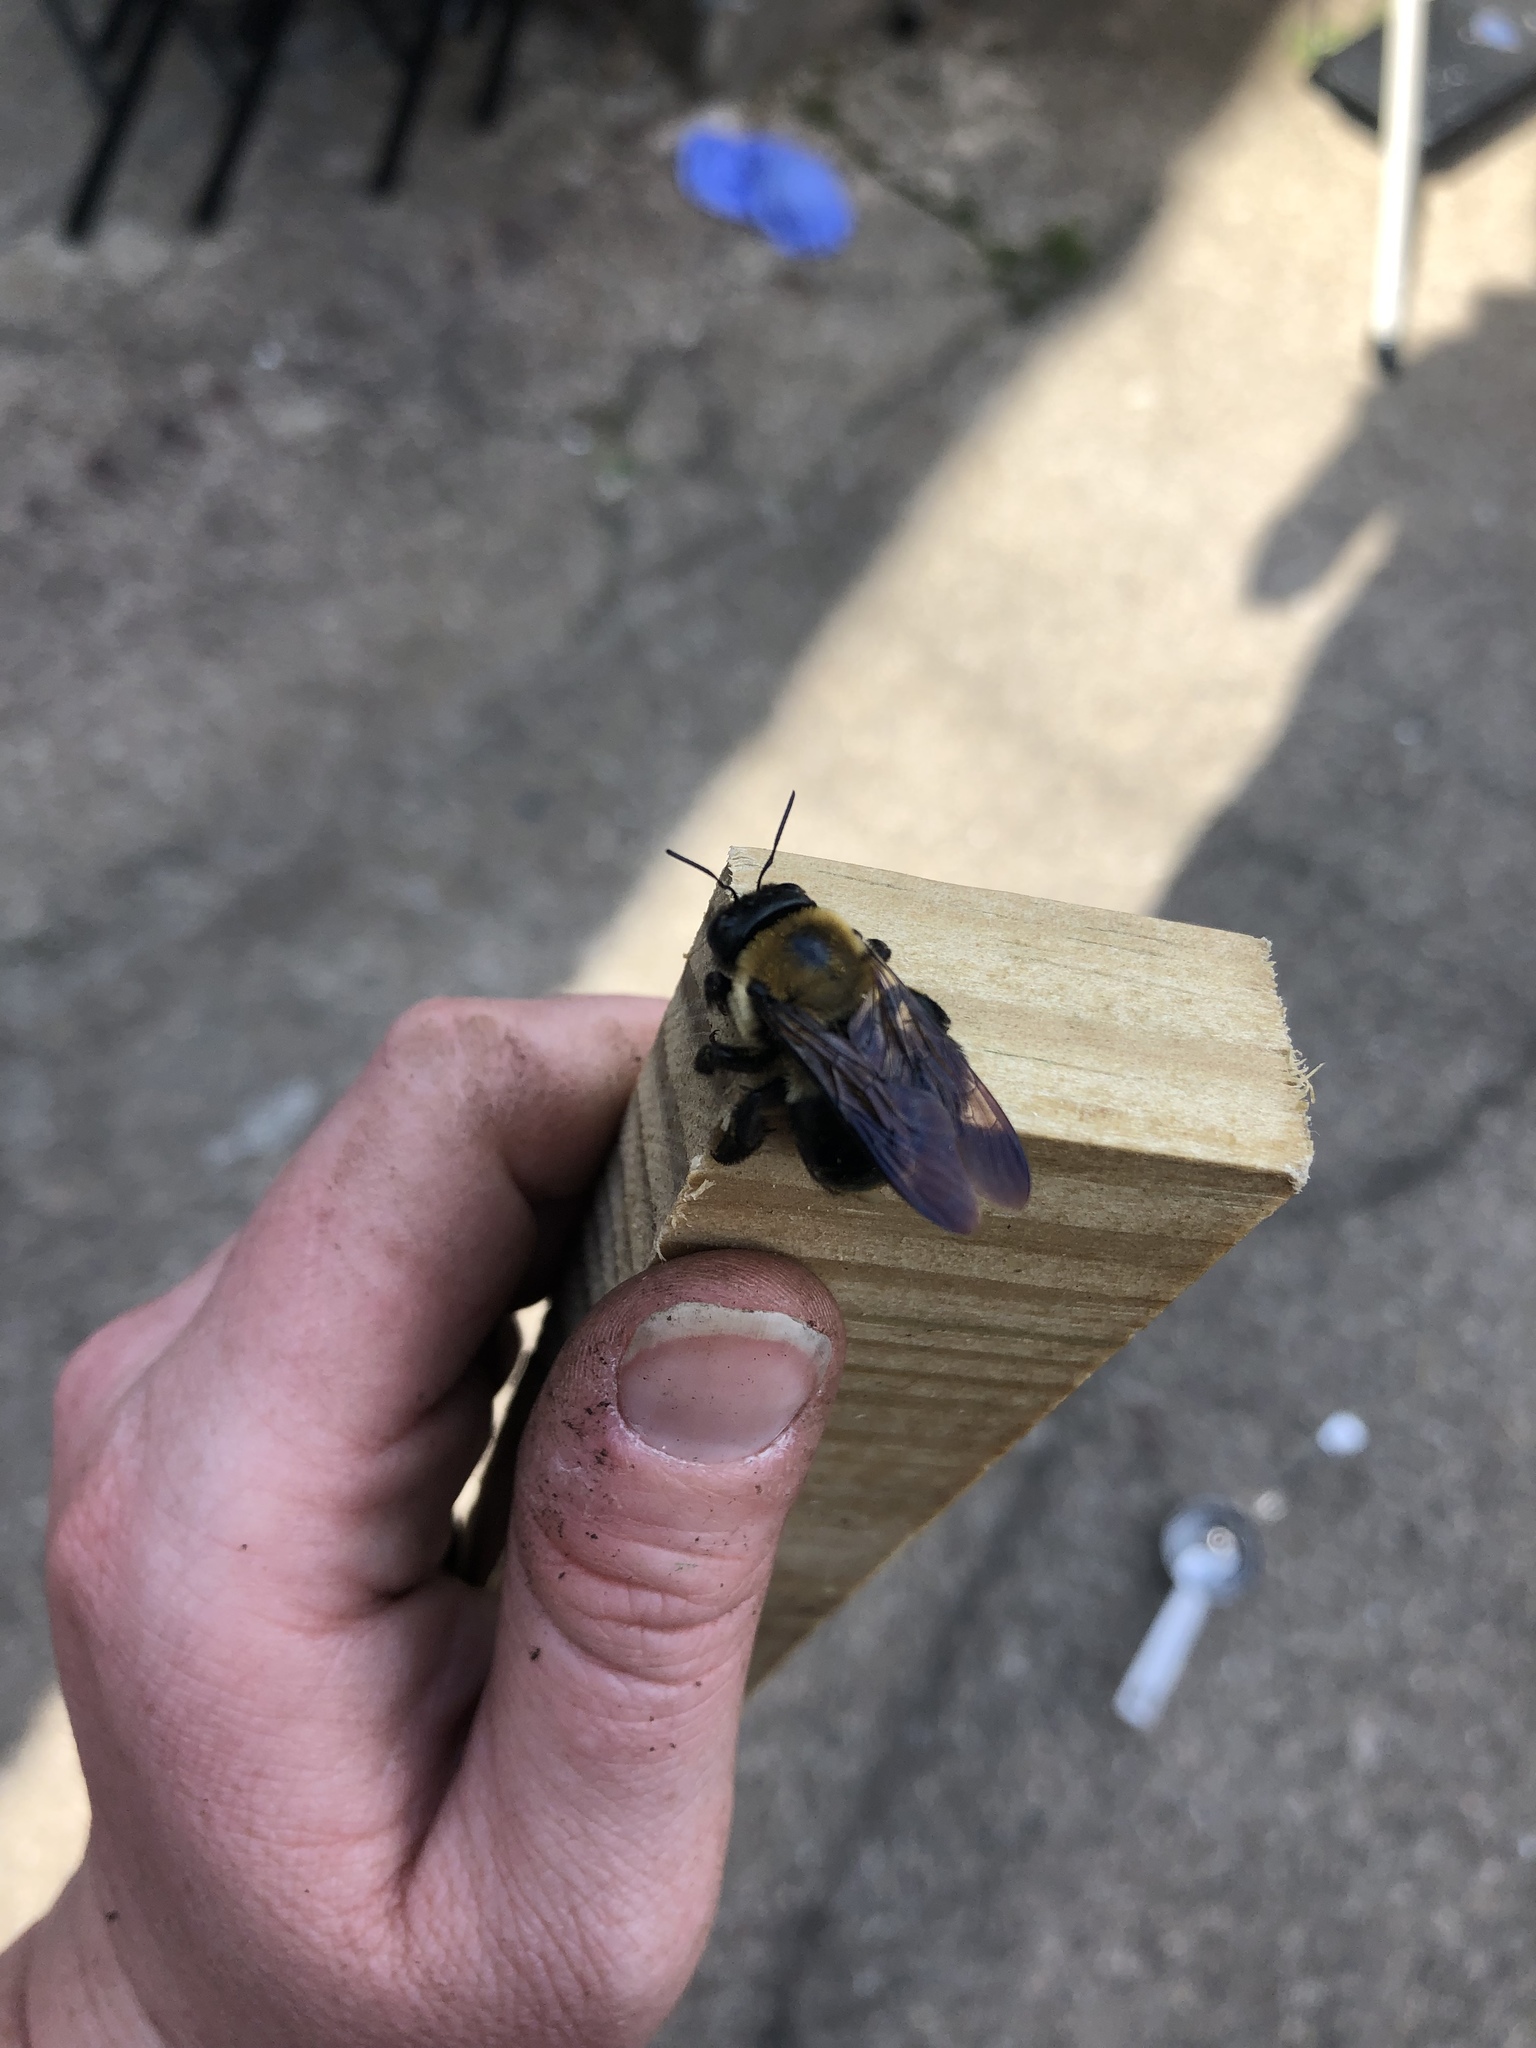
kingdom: Animalia
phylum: Arthropoda
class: Insecta
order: Hymenoptera
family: Apidae
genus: Xylocopa
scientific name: Xylocopa virginica
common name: Carpenter bee
